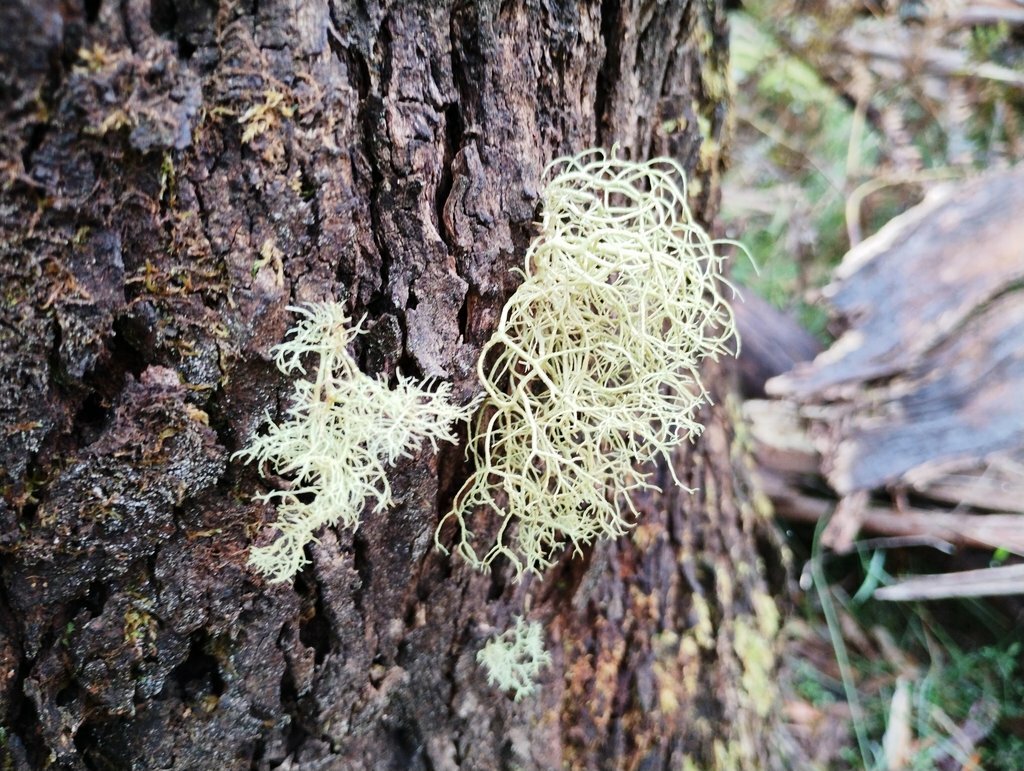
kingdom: Fungi
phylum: Ascomycota
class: Lecanoromycetes
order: Lecanorales
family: Parmeliaceae
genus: Usnea
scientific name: Usnea hirta
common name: Bristly beard lichen
